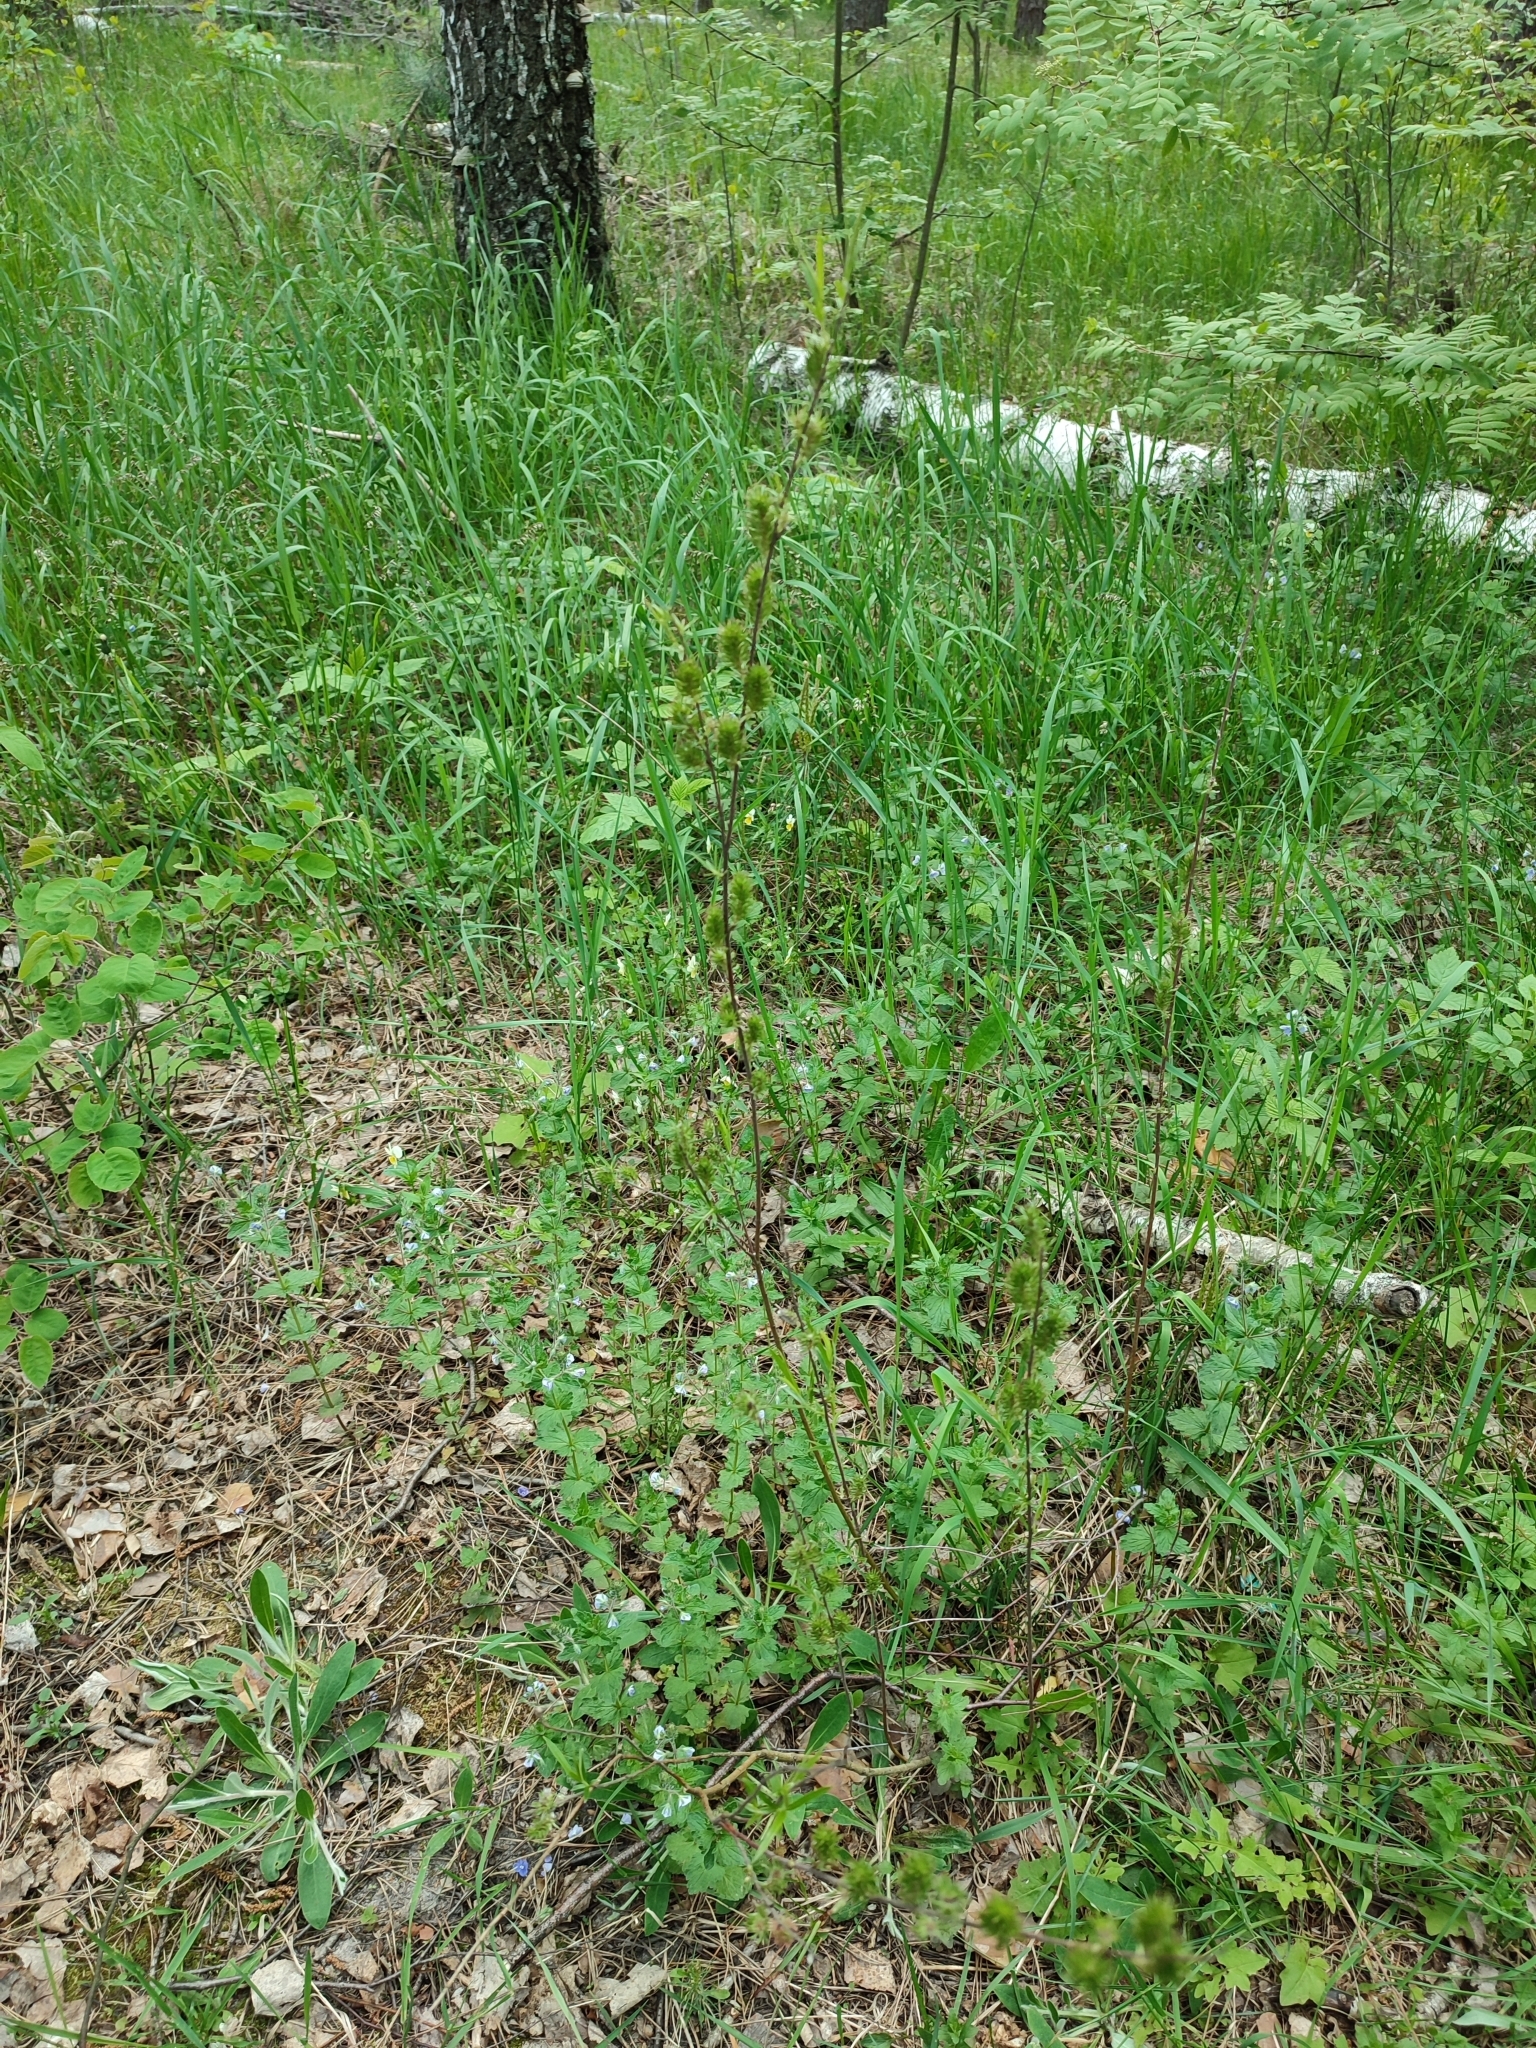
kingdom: Plantae
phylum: Tracheophyta
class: Magnoliopsida
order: Malpighiales
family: Salicaceae
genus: Salix
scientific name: Salix rosmarinifolia
